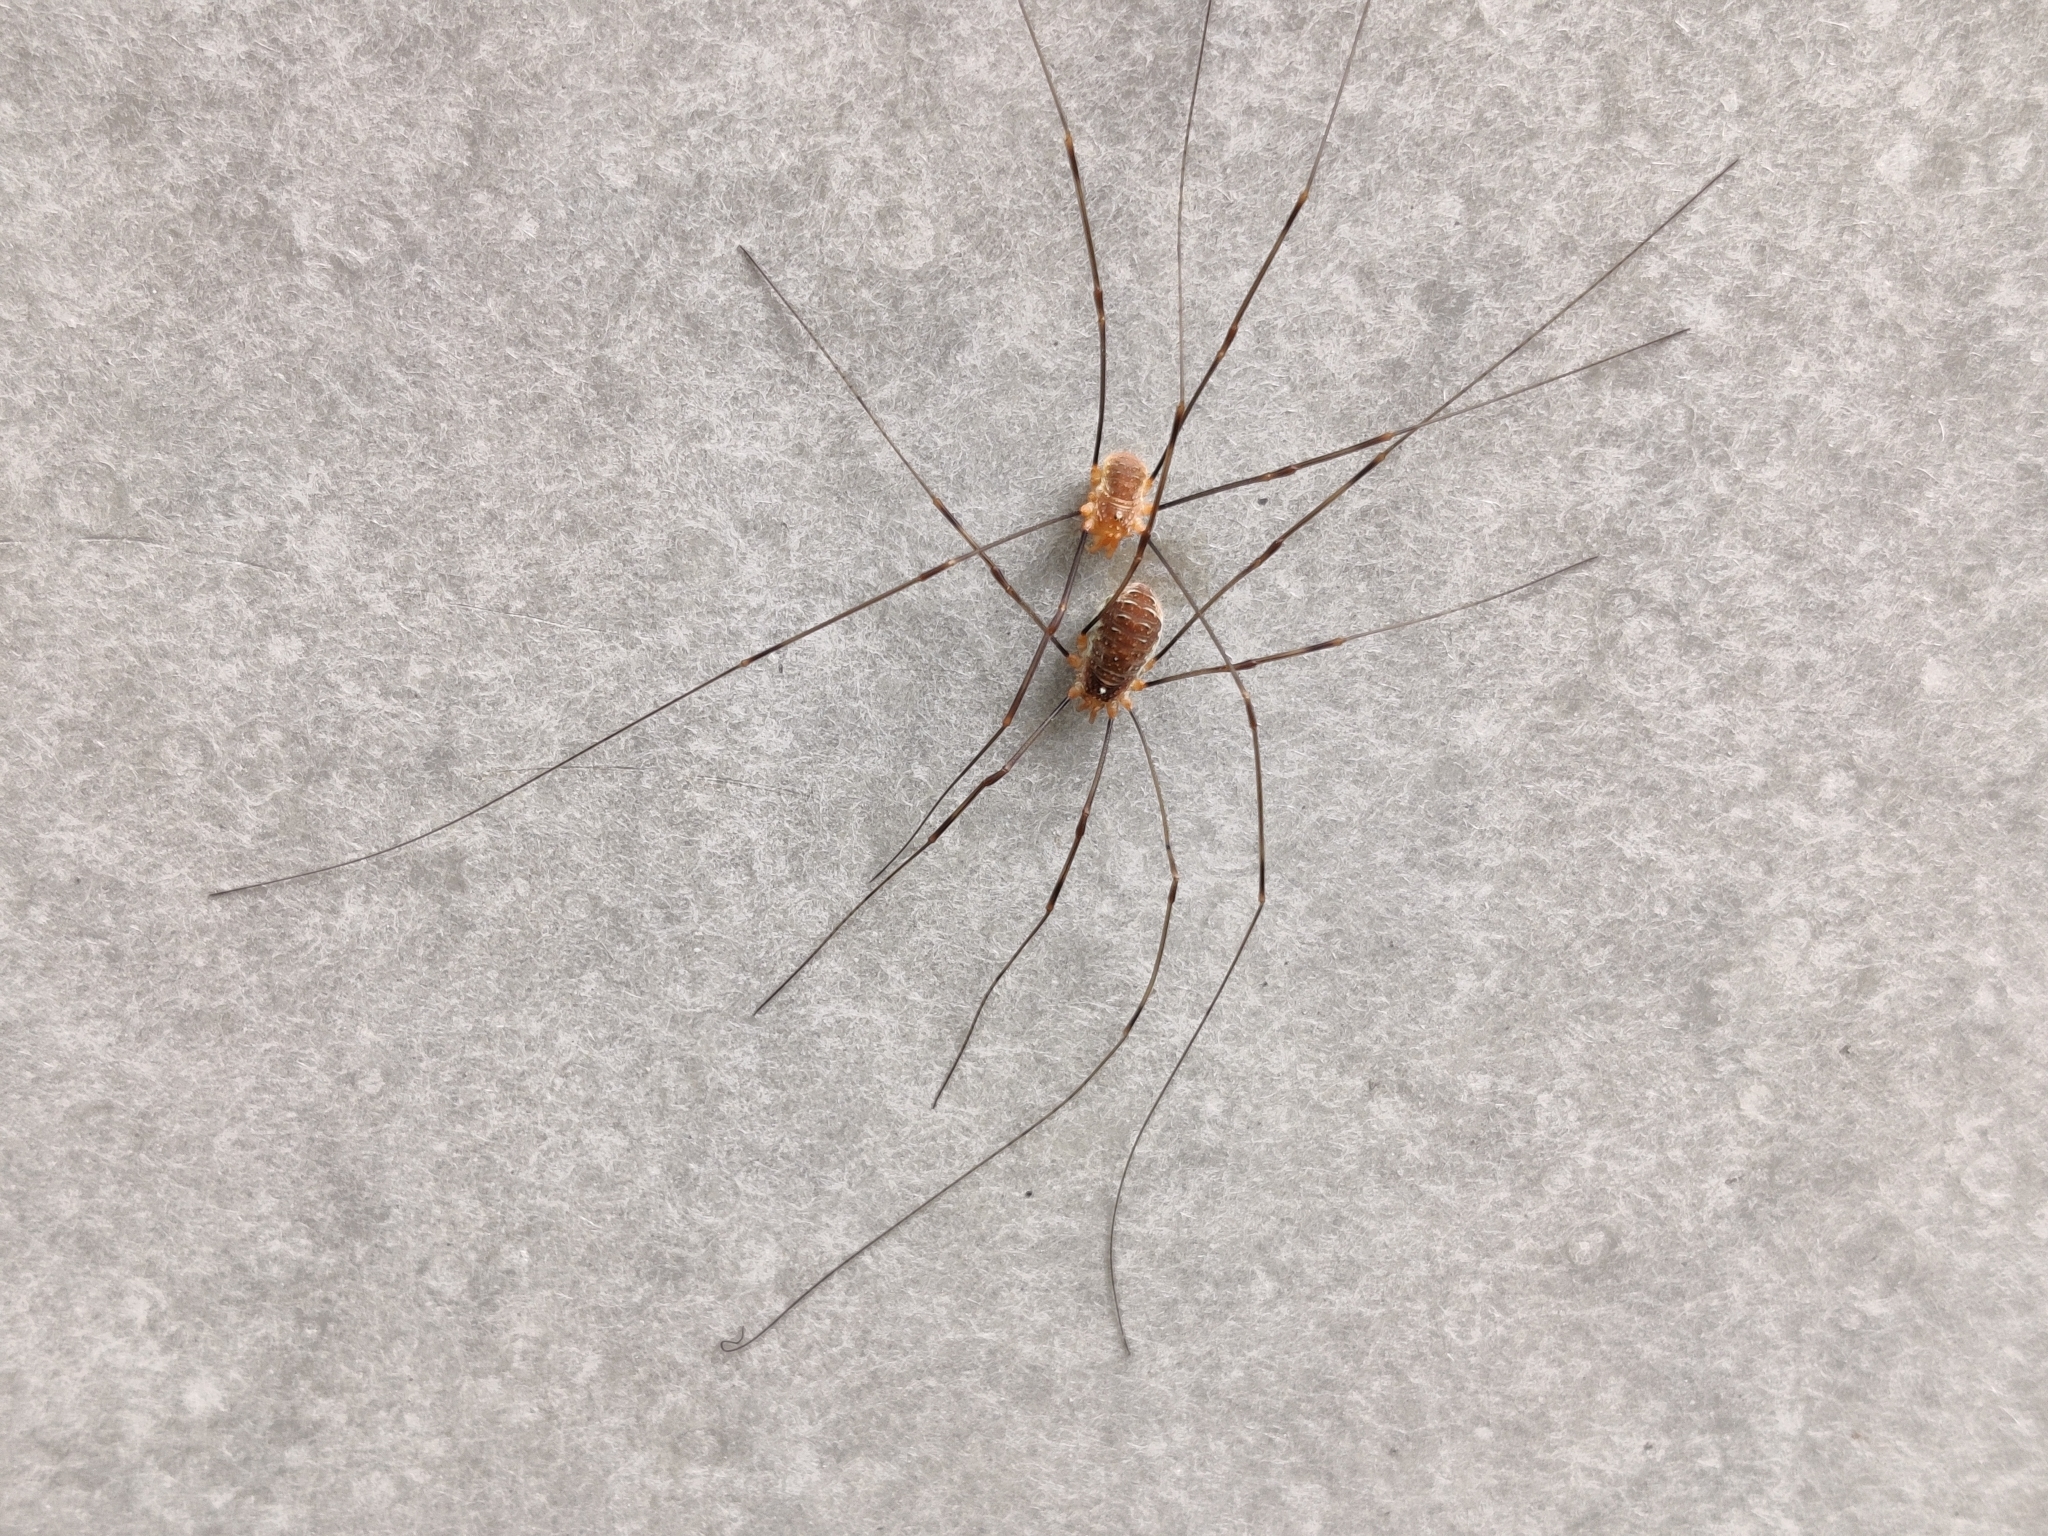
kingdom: Animalia
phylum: Arthropoda
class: Arachnida
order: Opiliones
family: Phalangiidae
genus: Opilio
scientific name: Opilio canestrinii
